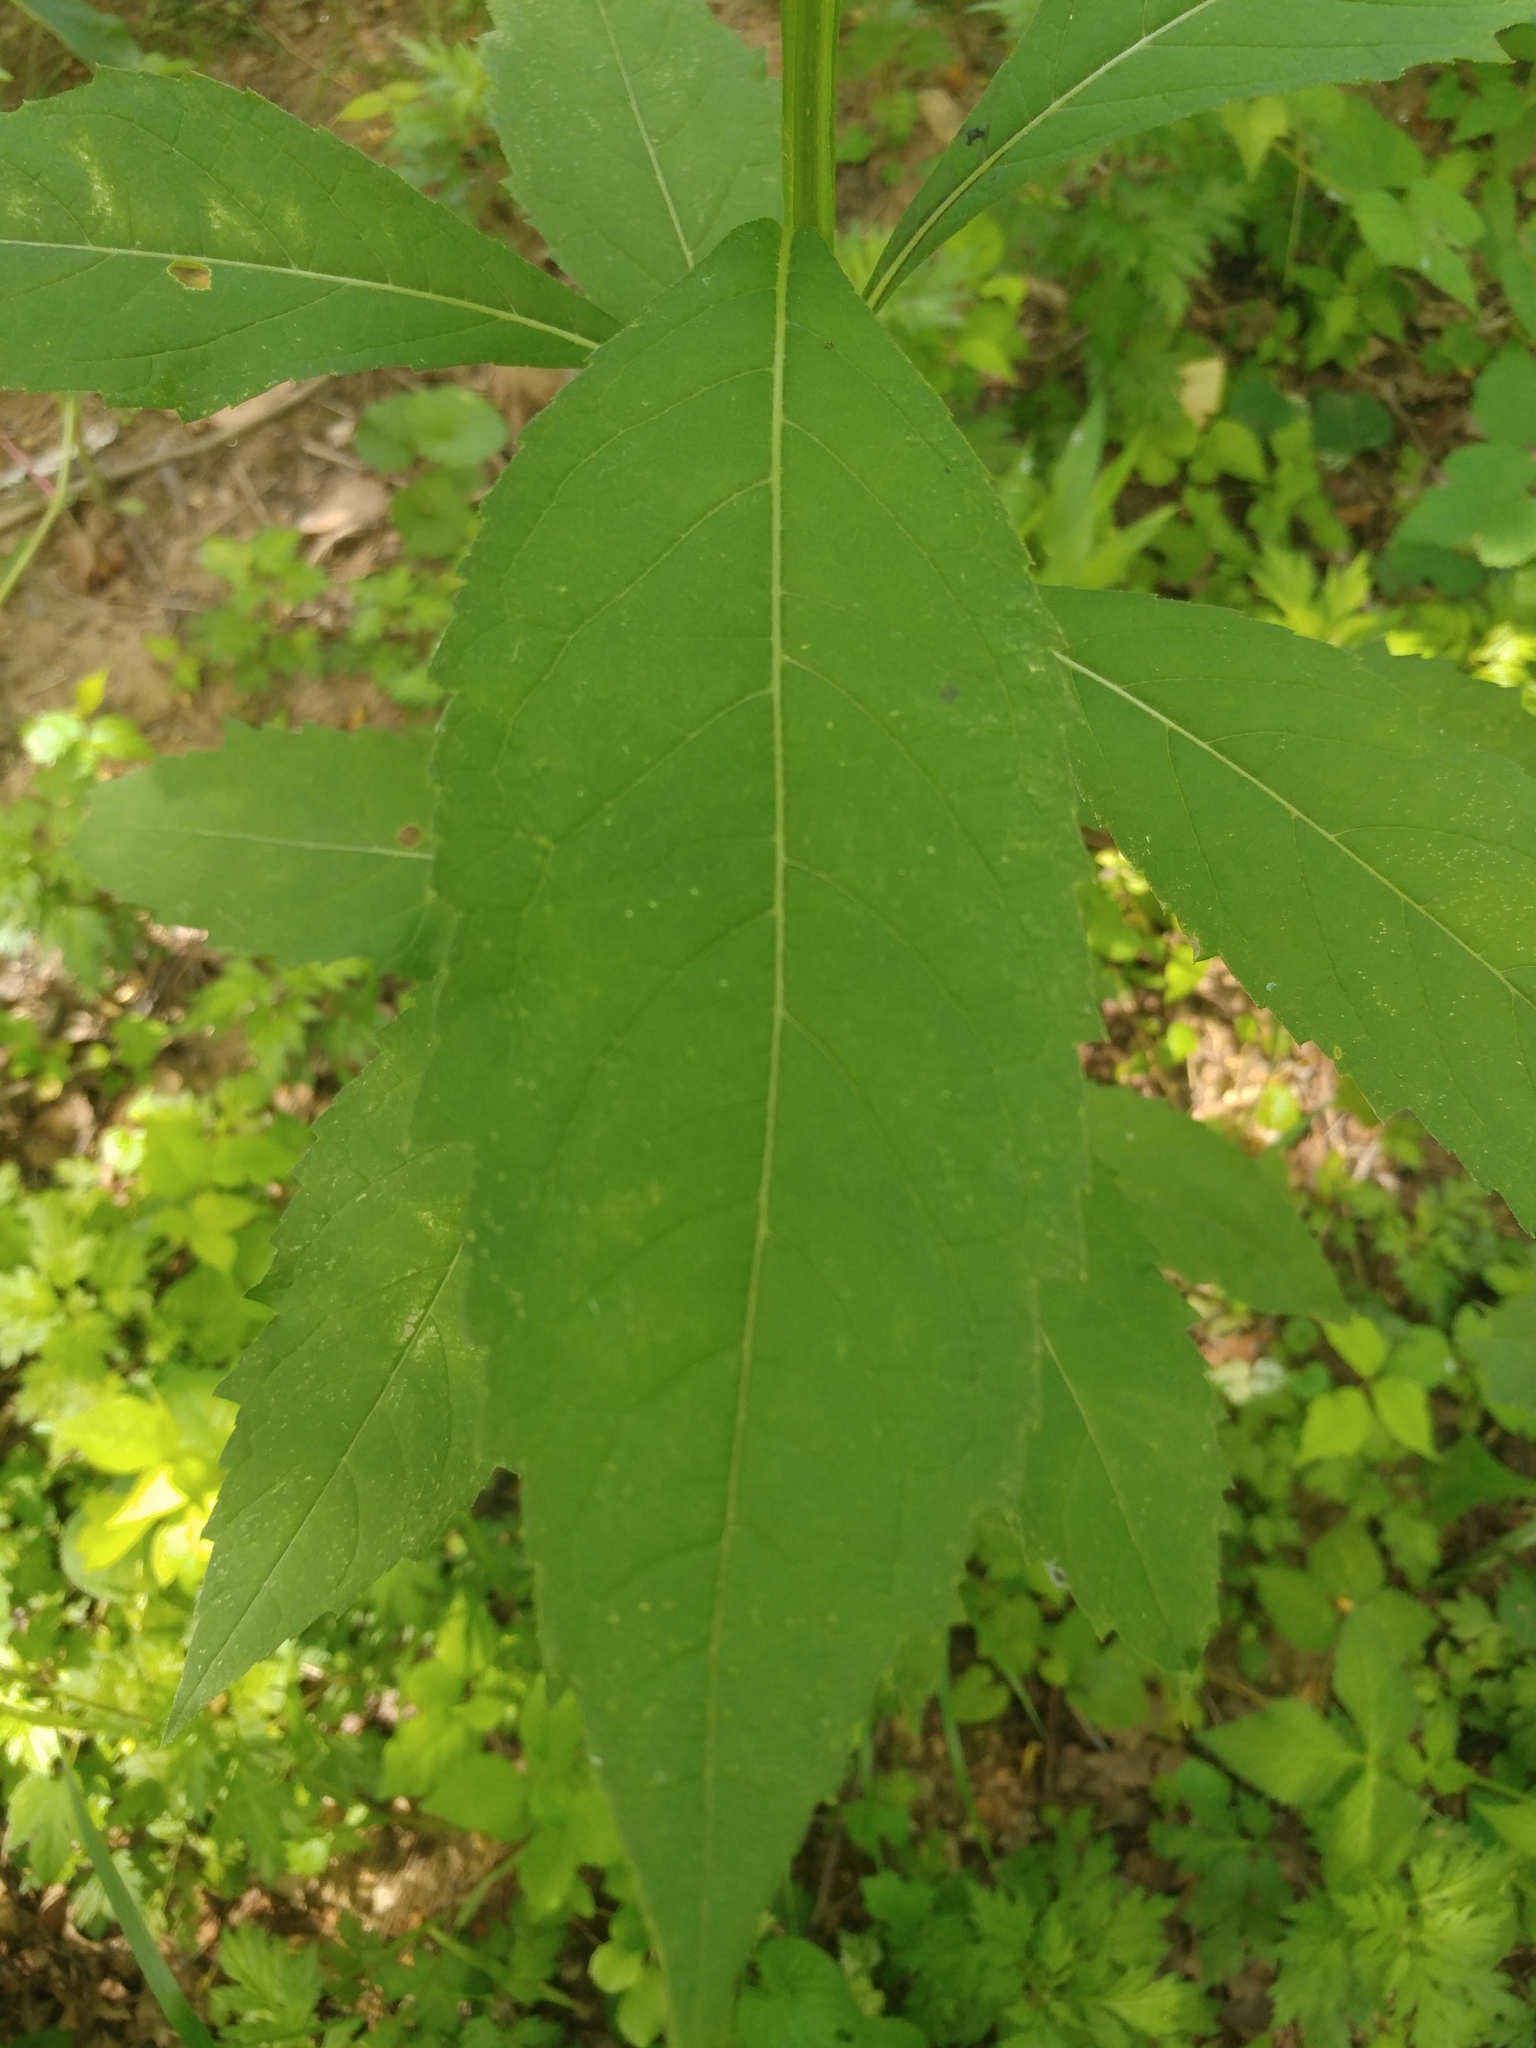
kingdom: Plantae
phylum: Tracheophyta
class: Magnoliopsida
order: Asterales
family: Asteraceae
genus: Verbesina
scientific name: Verbesina alternifolia
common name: Wingstem
